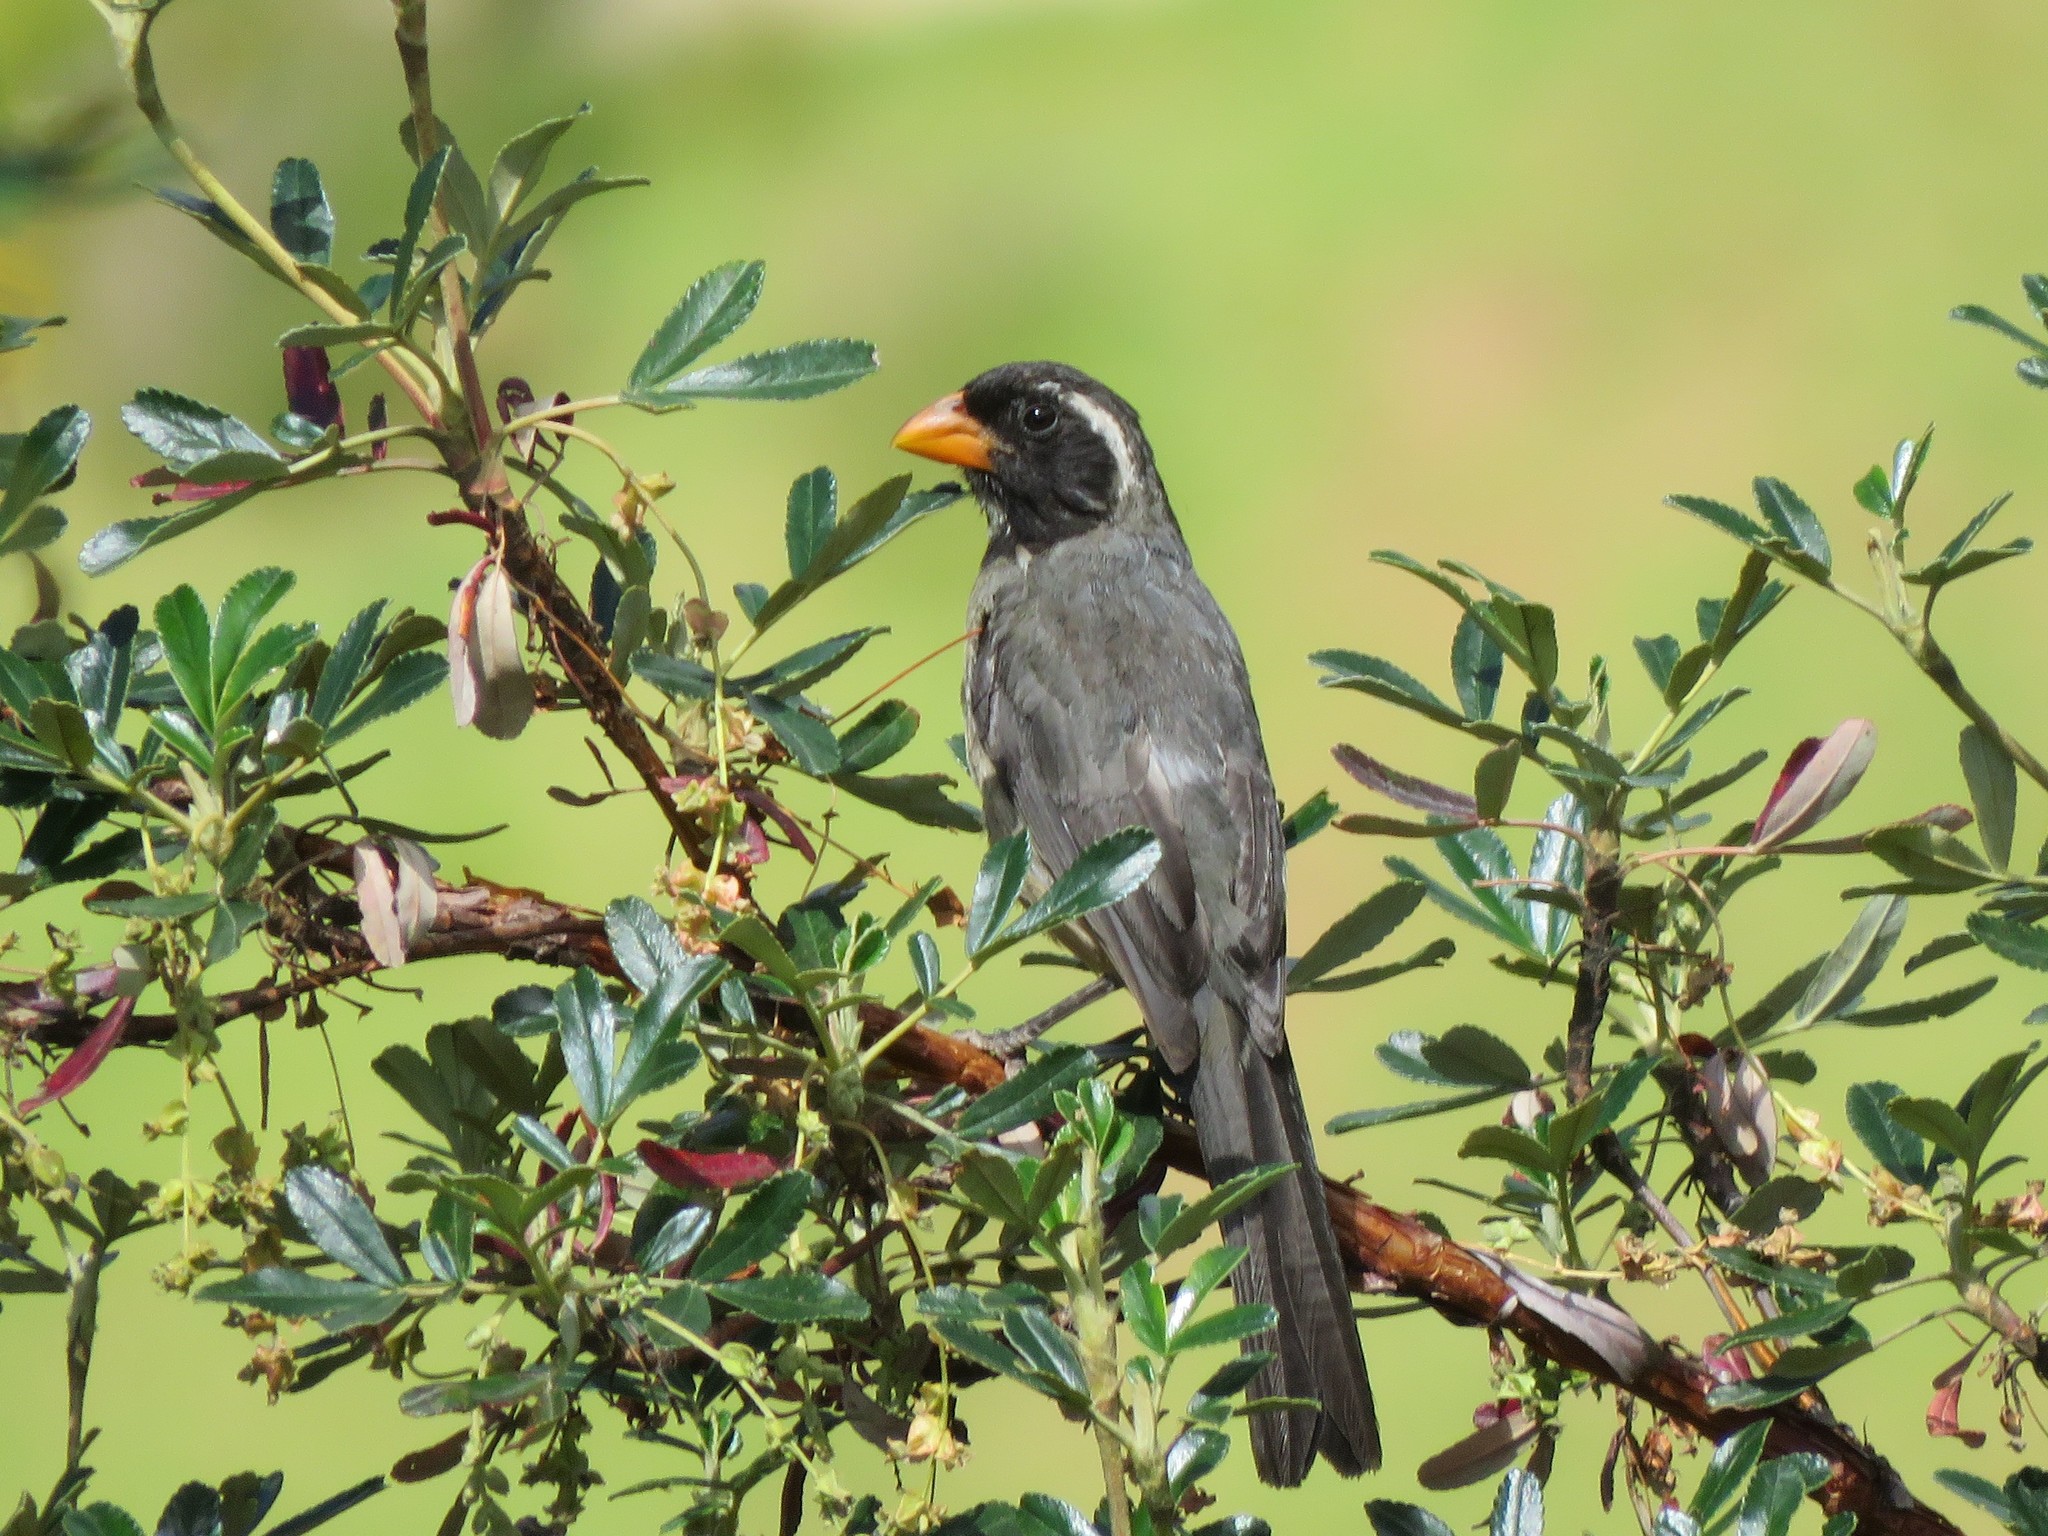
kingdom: Animalia
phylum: Chordata
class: Aves
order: Passeriformes
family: Thraupidae
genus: Saltator
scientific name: Saltator aurantiirostris
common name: Golden-billed saltator
